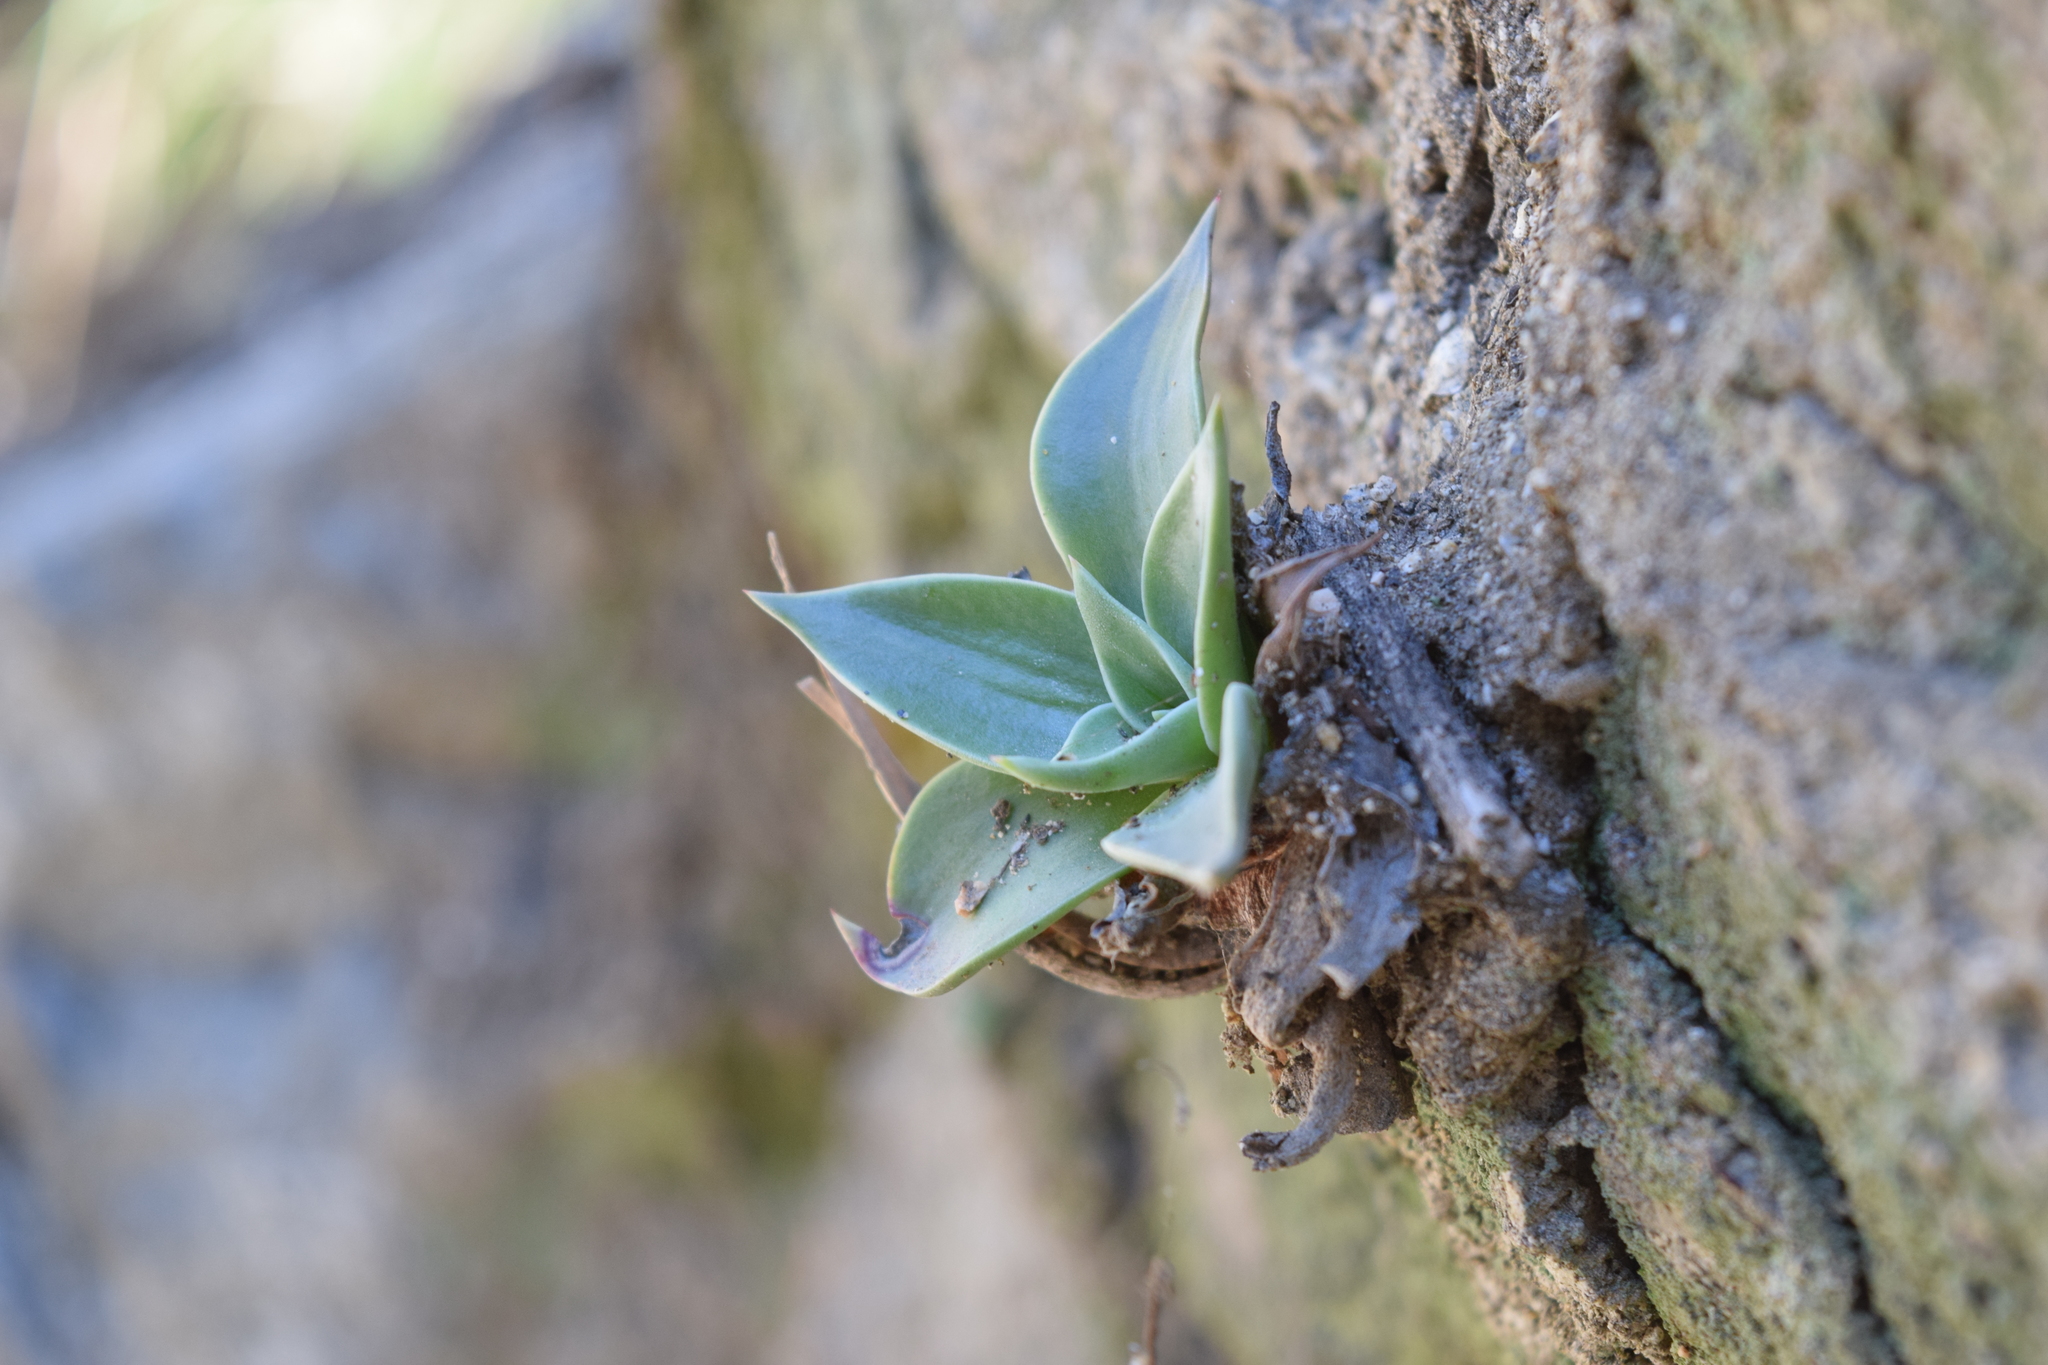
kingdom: Plantae
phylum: Tracheophyta
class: Magnoliopsida
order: Saxifragales
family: Crassulaceae
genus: Dudleya
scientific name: Dudleya lanceolata
